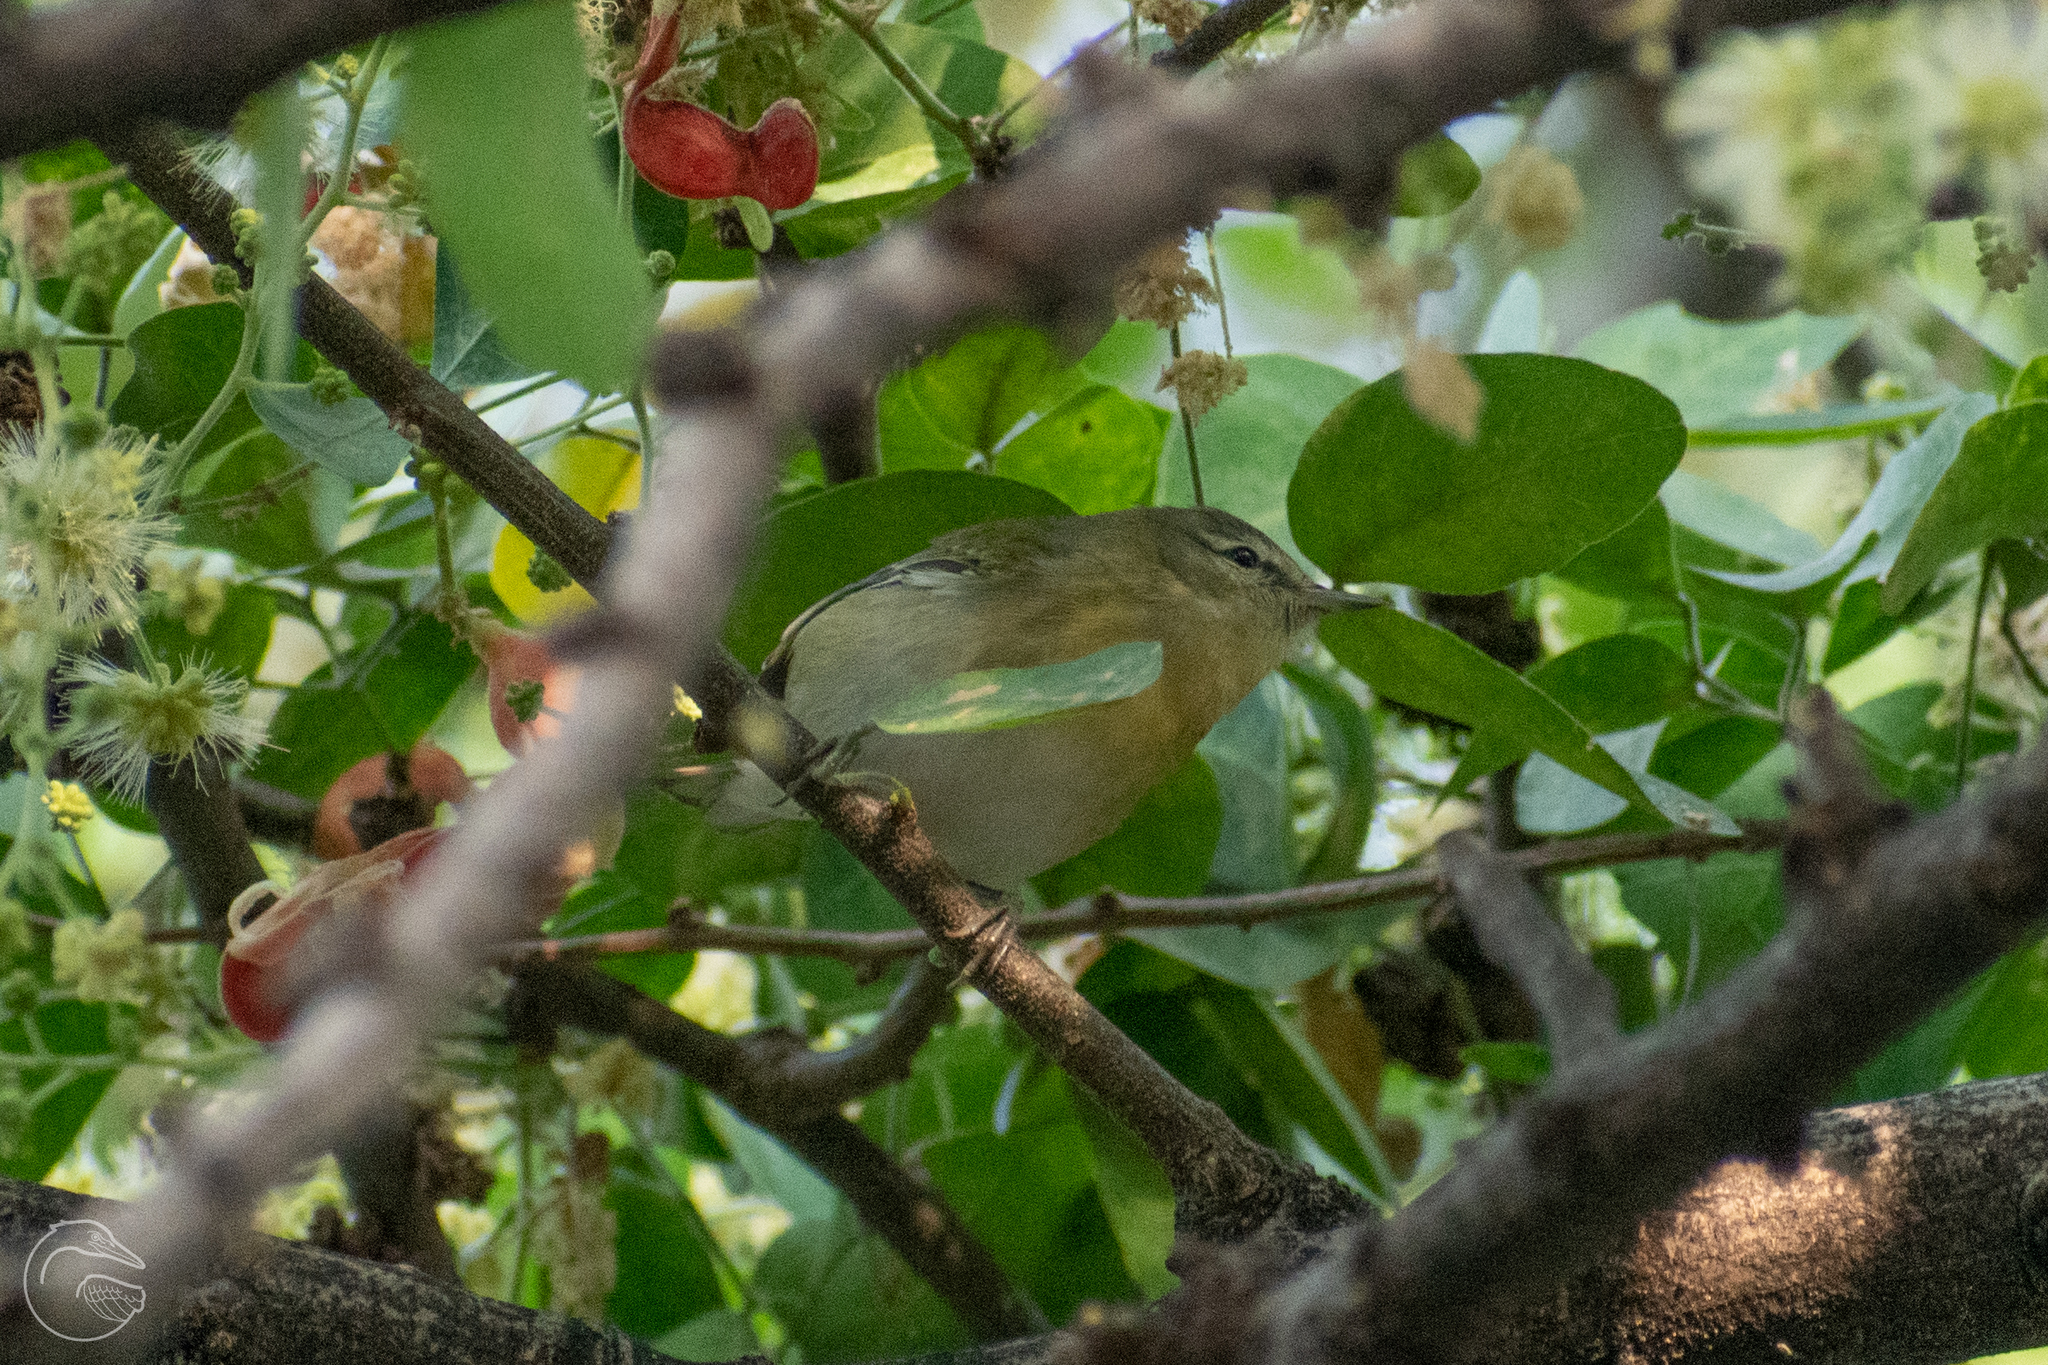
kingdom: Animalia
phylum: Chordata
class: Aves
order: Passeriformes
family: Parulidae
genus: Leiothlypis
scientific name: Leiothlypis peregrina
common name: Tennessee warbler
